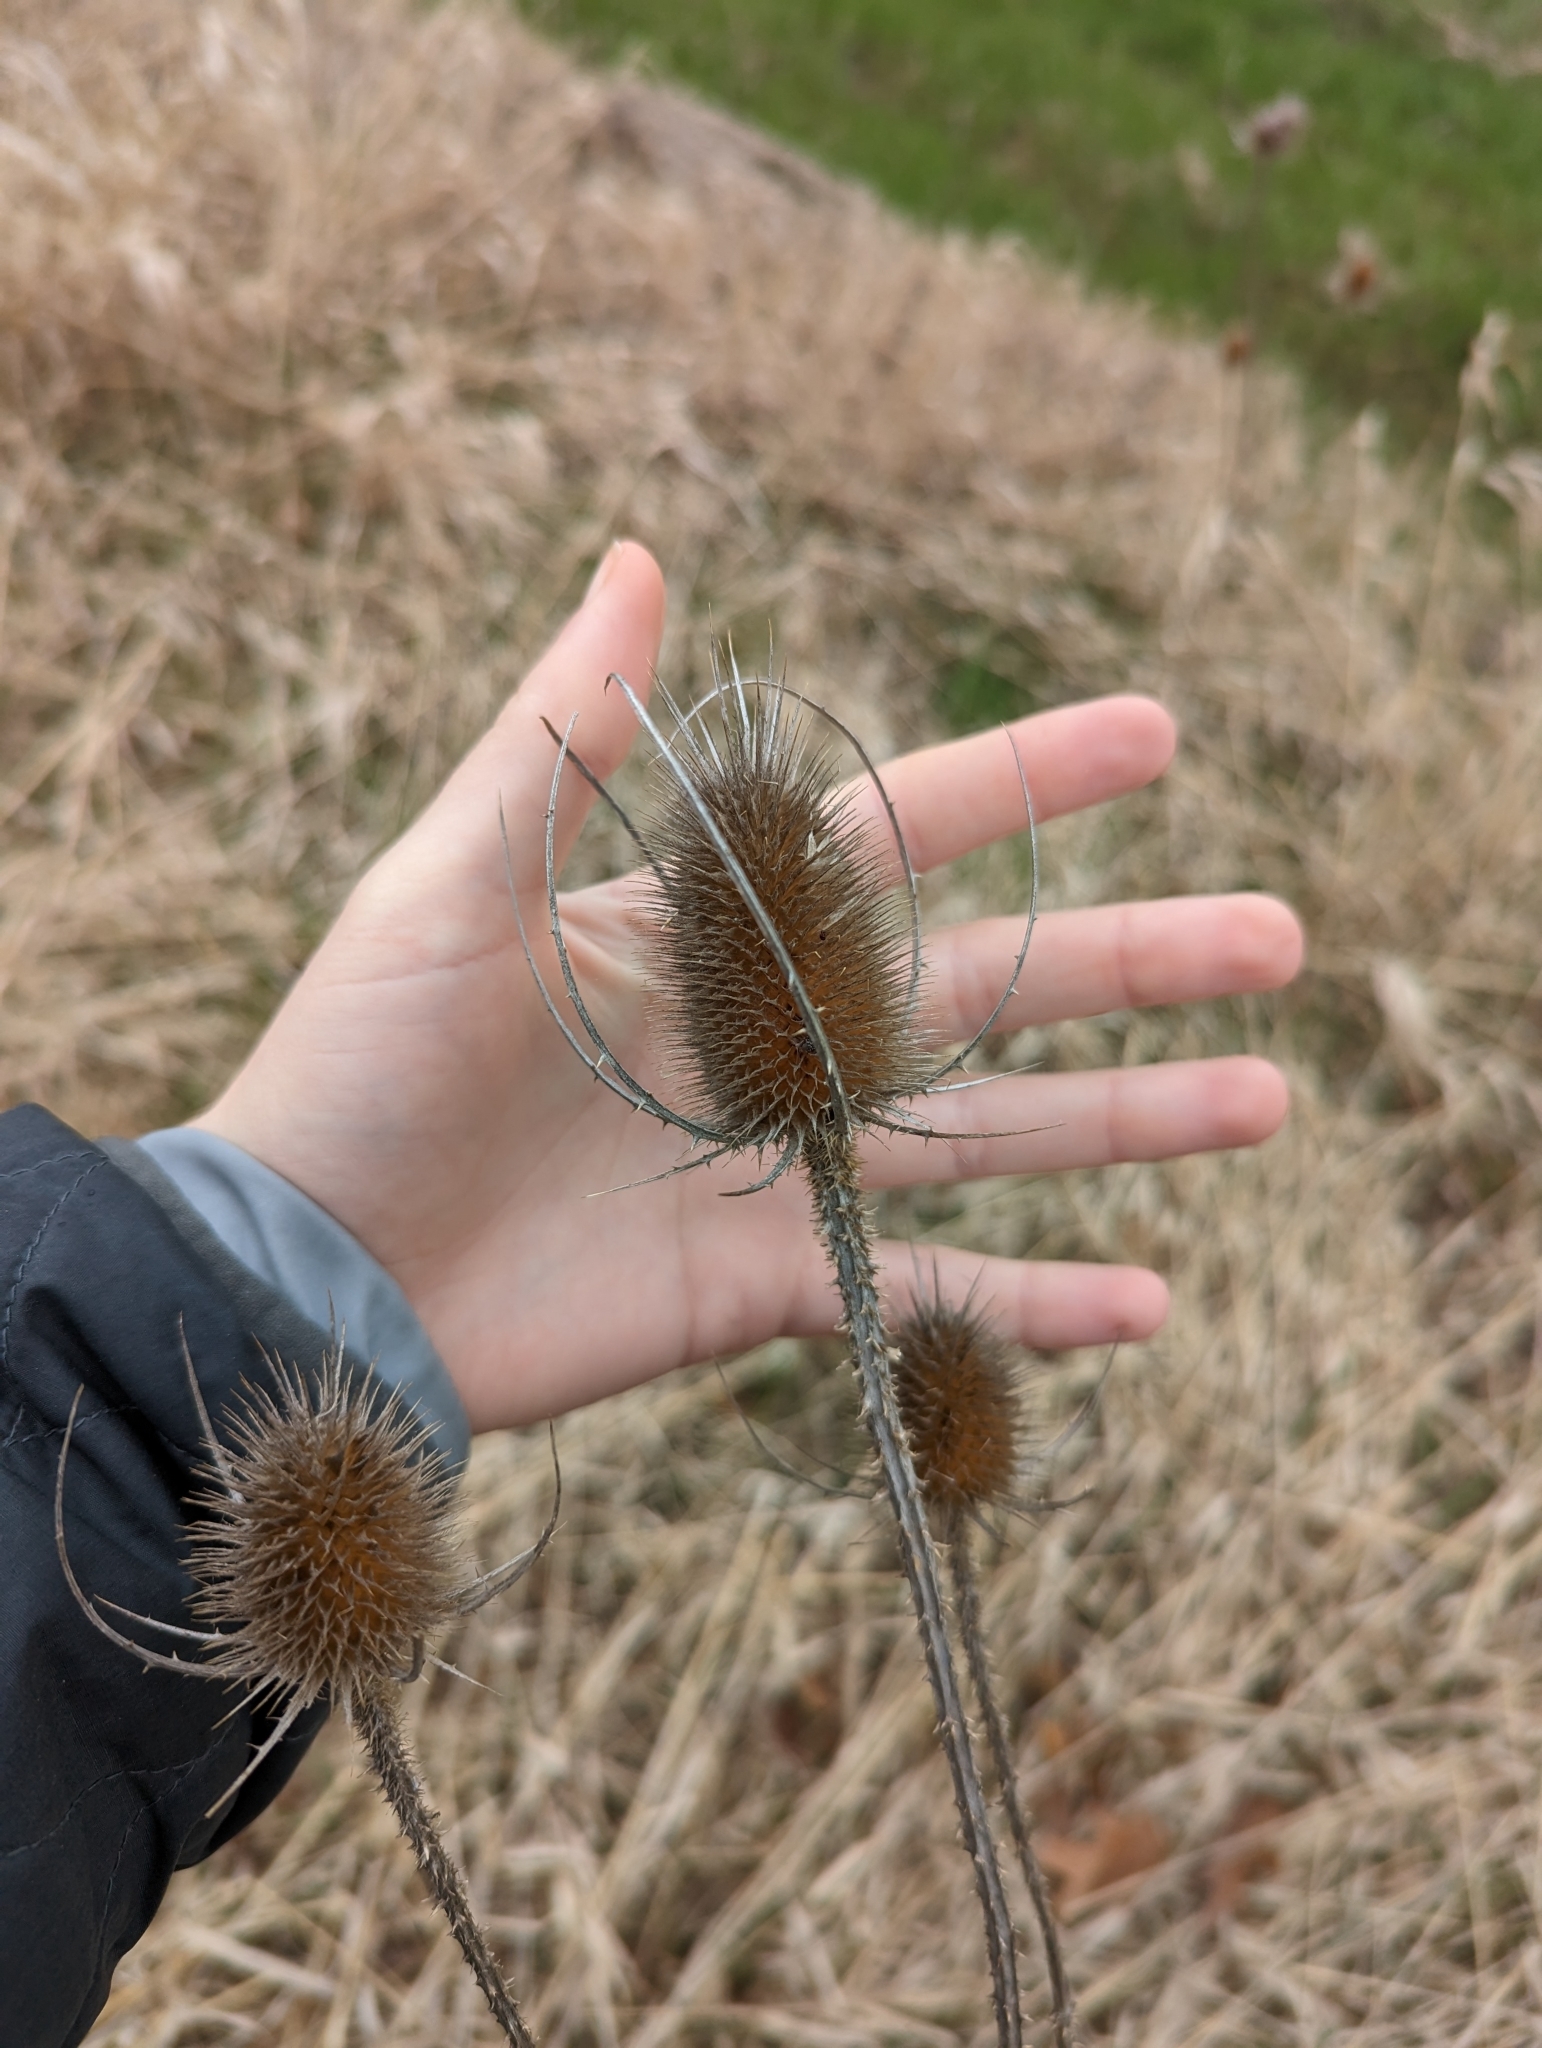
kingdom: Plantae
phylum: Tracheophyta
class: Magnoliopsida
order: Dipsacales
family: Caprifoliaceae
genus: Dipsacus
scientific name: Dipsacus fullonum
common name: Teasel
